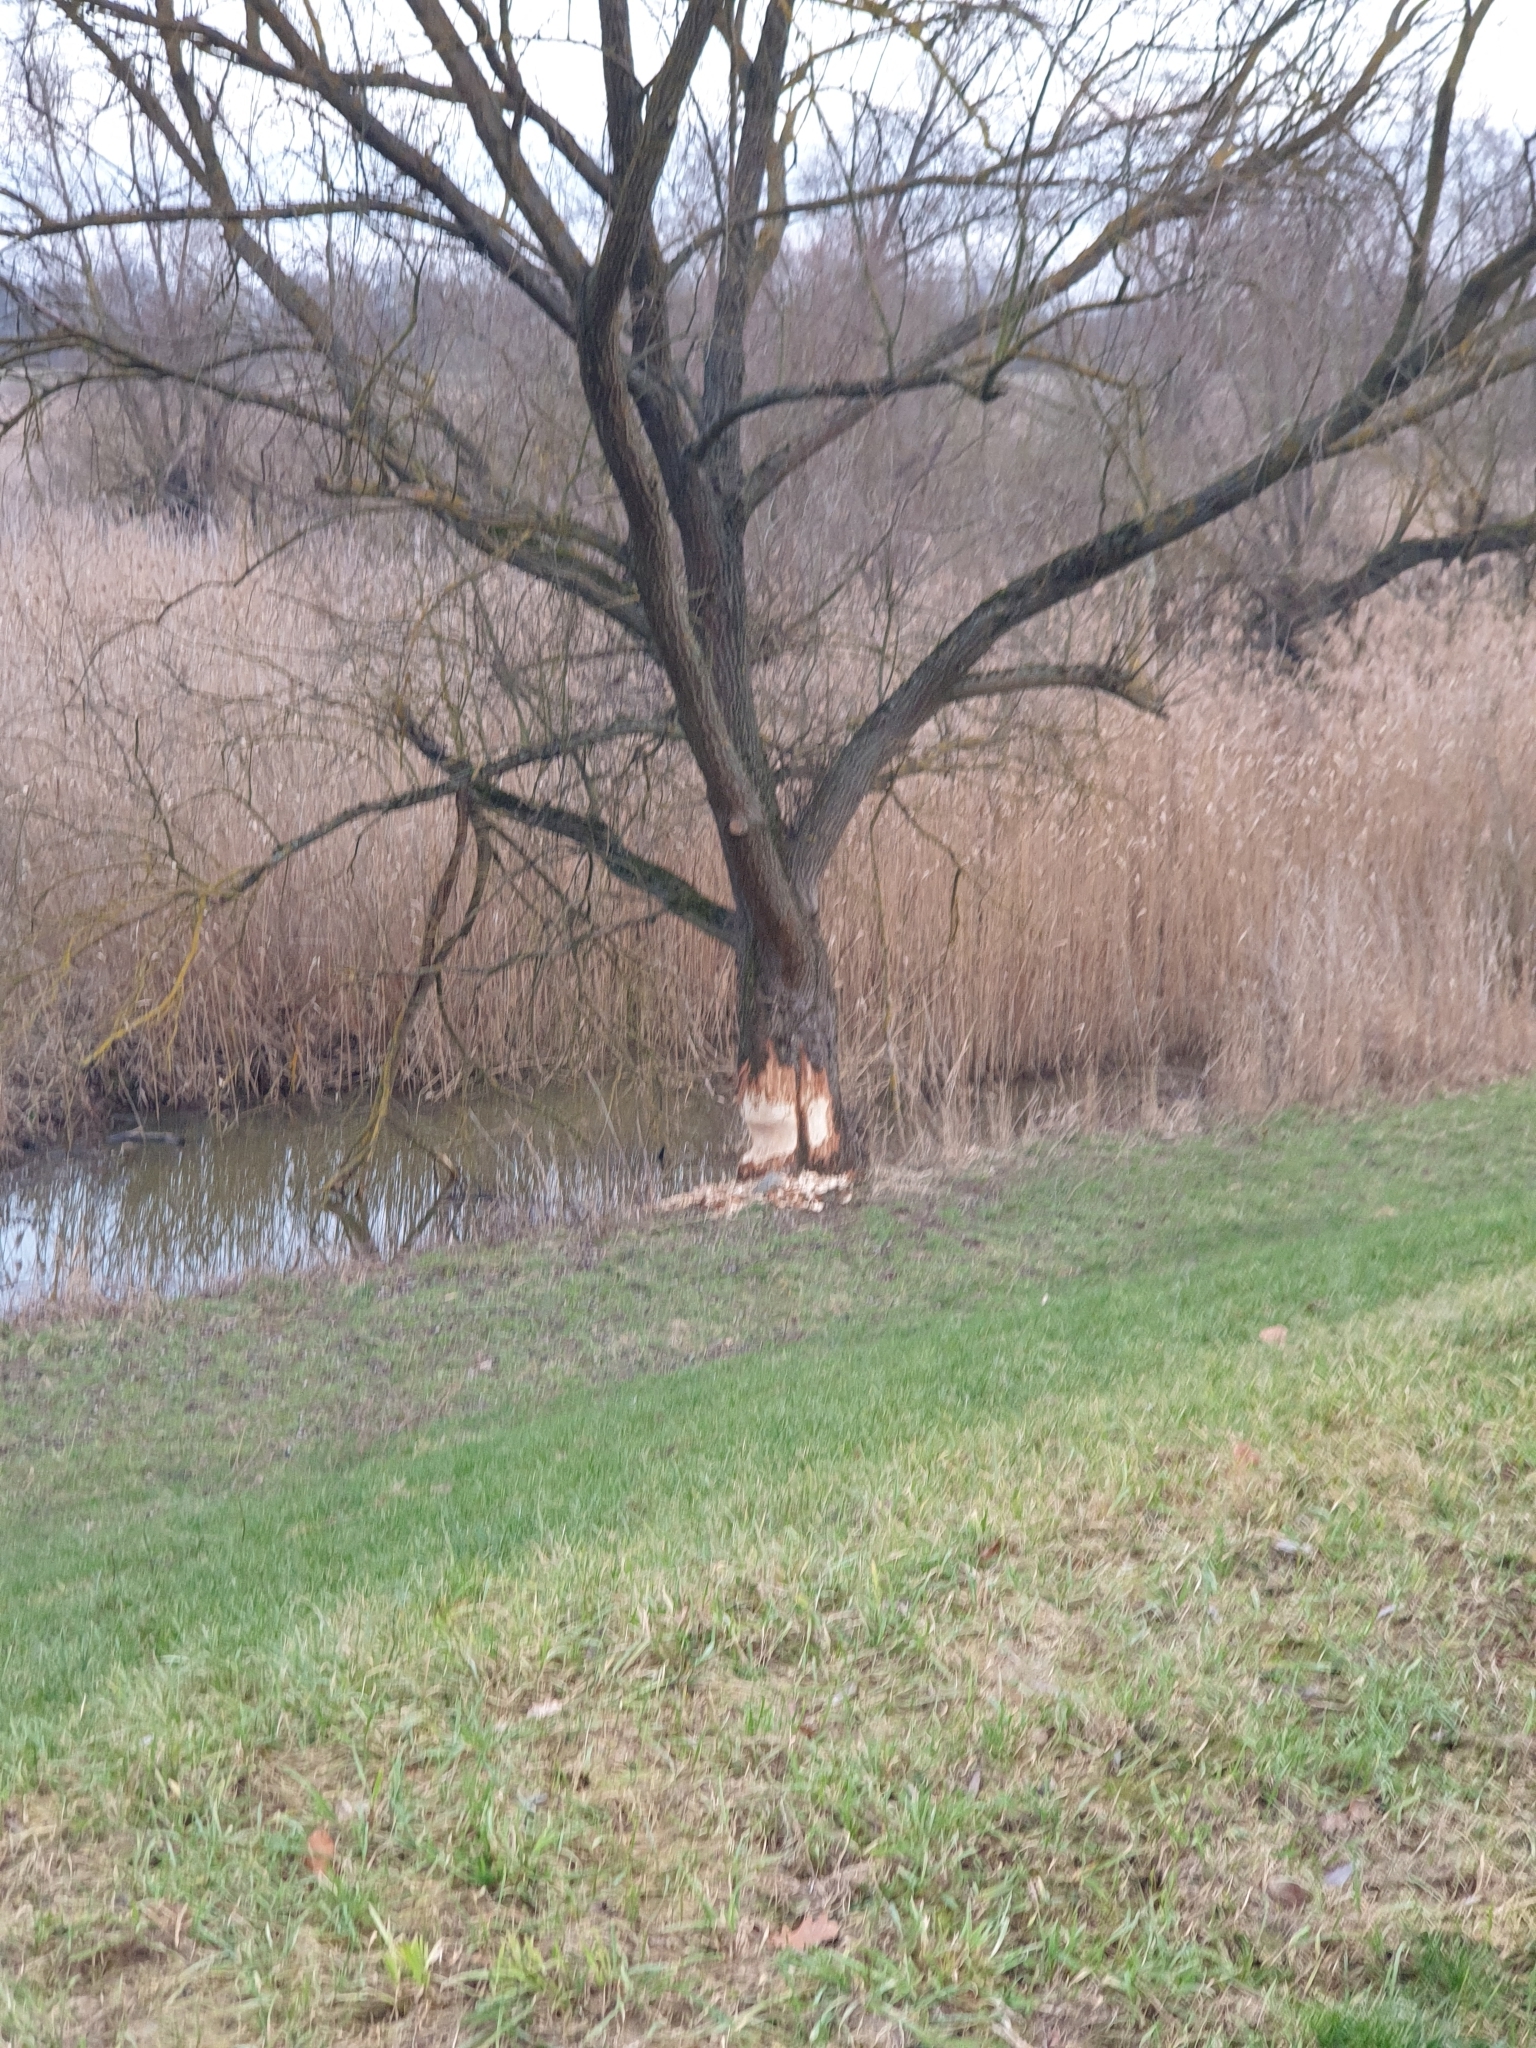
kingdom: Animalia
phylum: Chordata
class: Mammalia
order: Rodentia
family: Castoridae
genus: Castor
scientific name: Castor fiber
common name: Eurasian beaver
